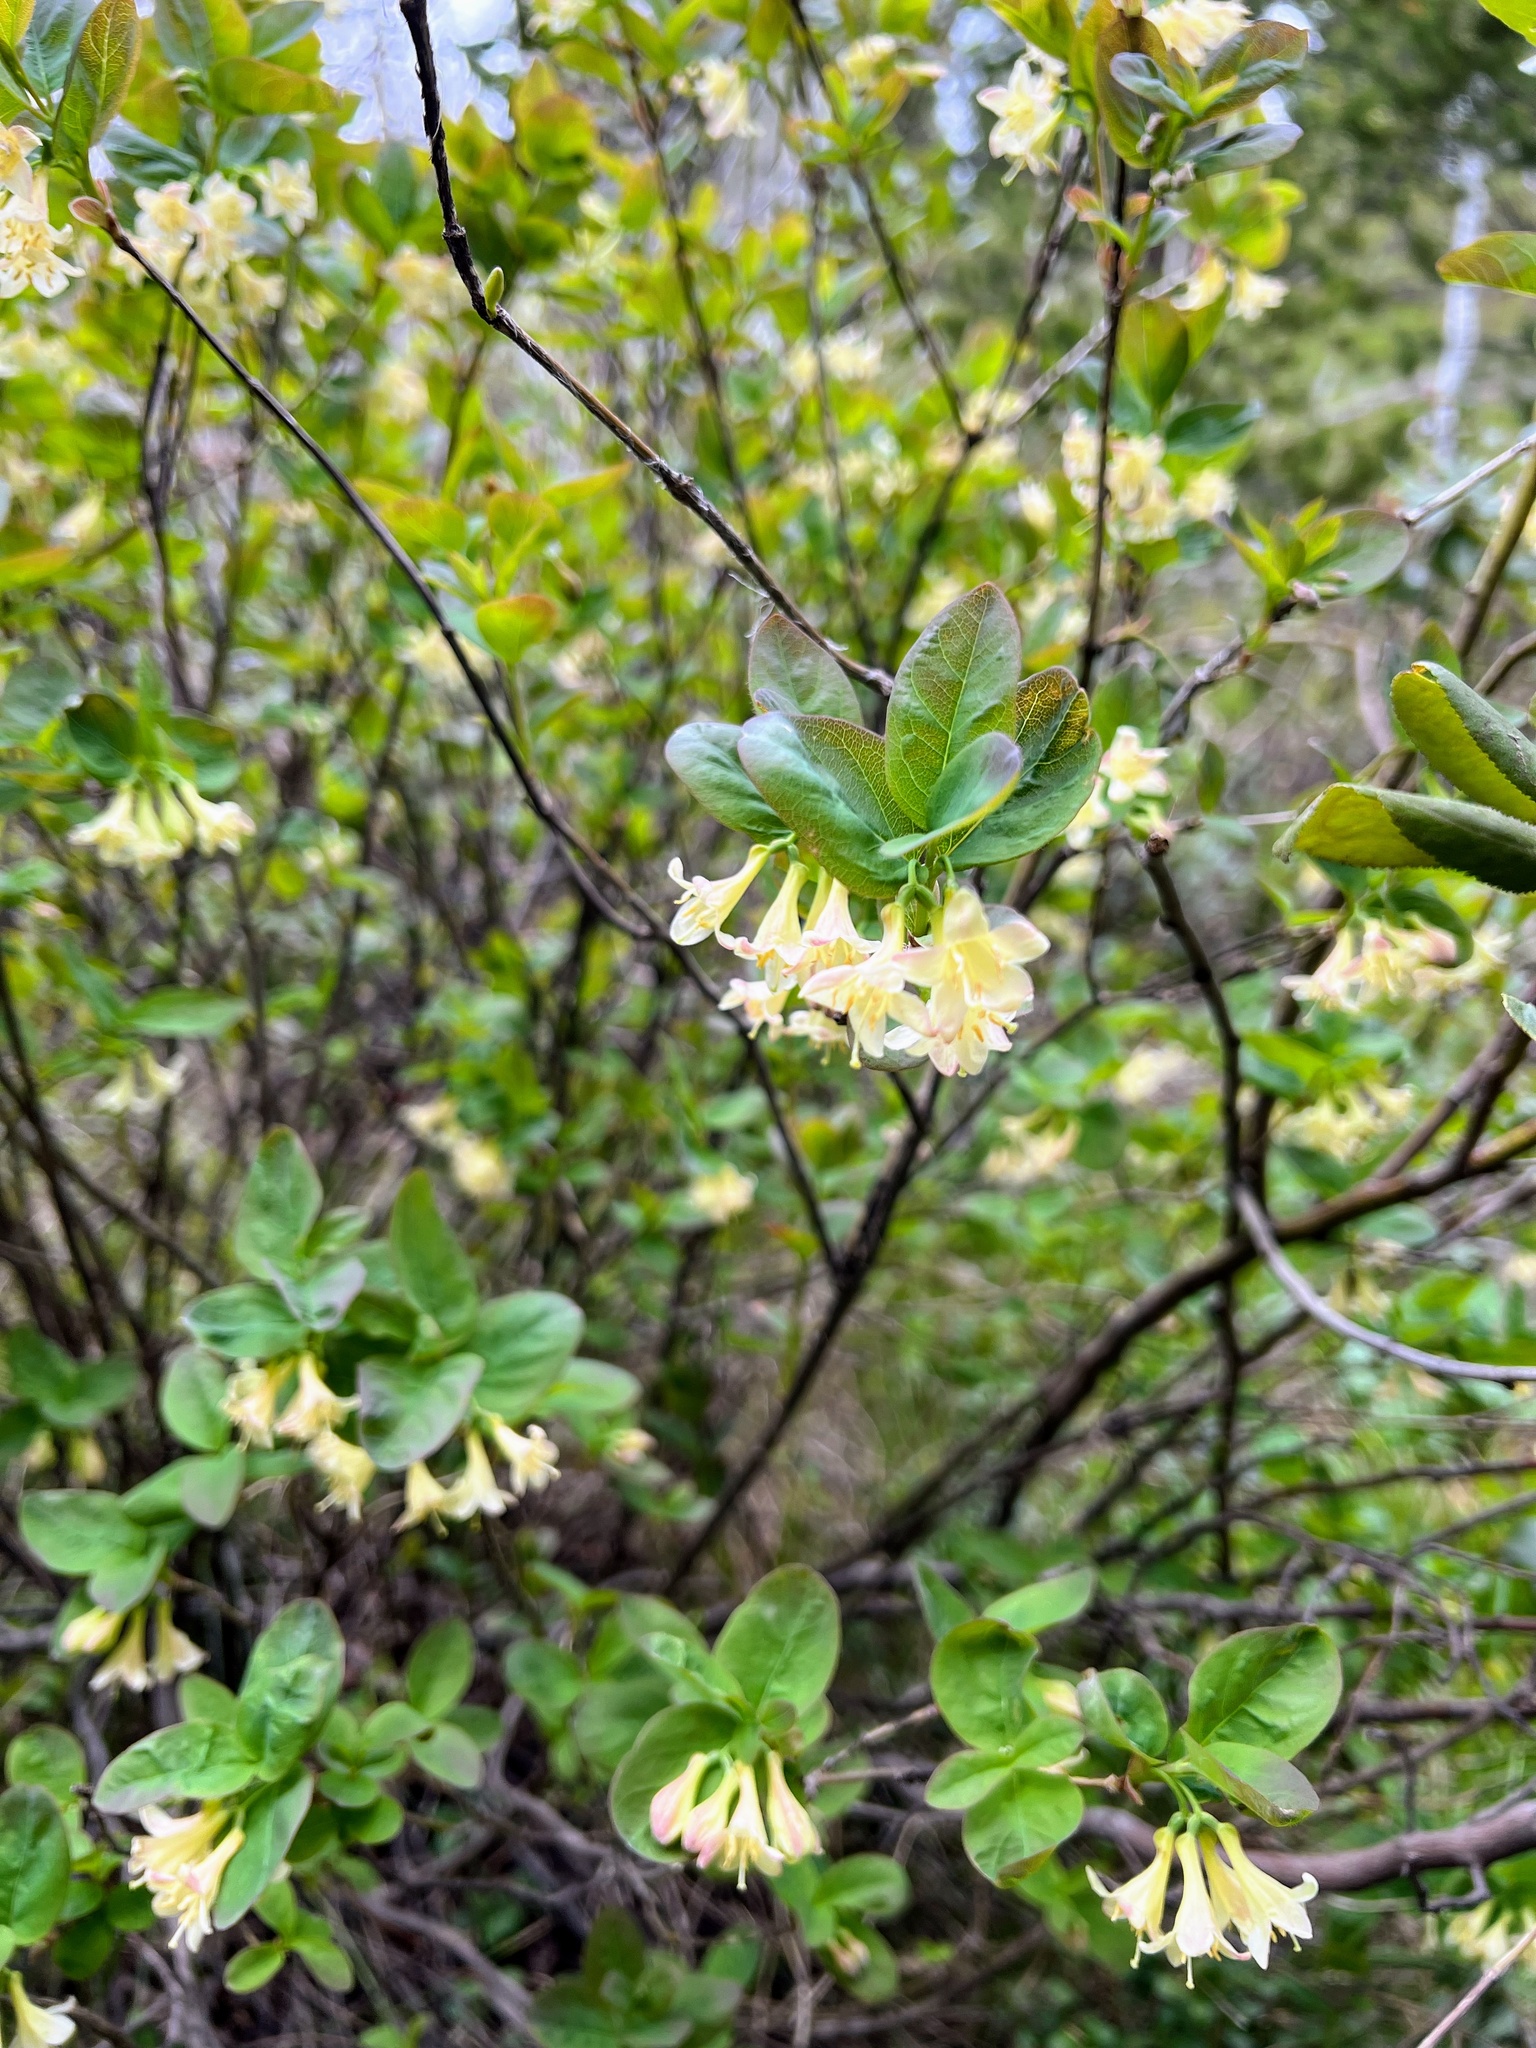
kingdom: Plantae
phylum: Tracheophyta
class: Magnoliopsida
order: Dipsacales
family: Caprifoliaceae
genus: Lonicera
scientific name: Lonicera utahensis
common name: Utah honeysuckle
